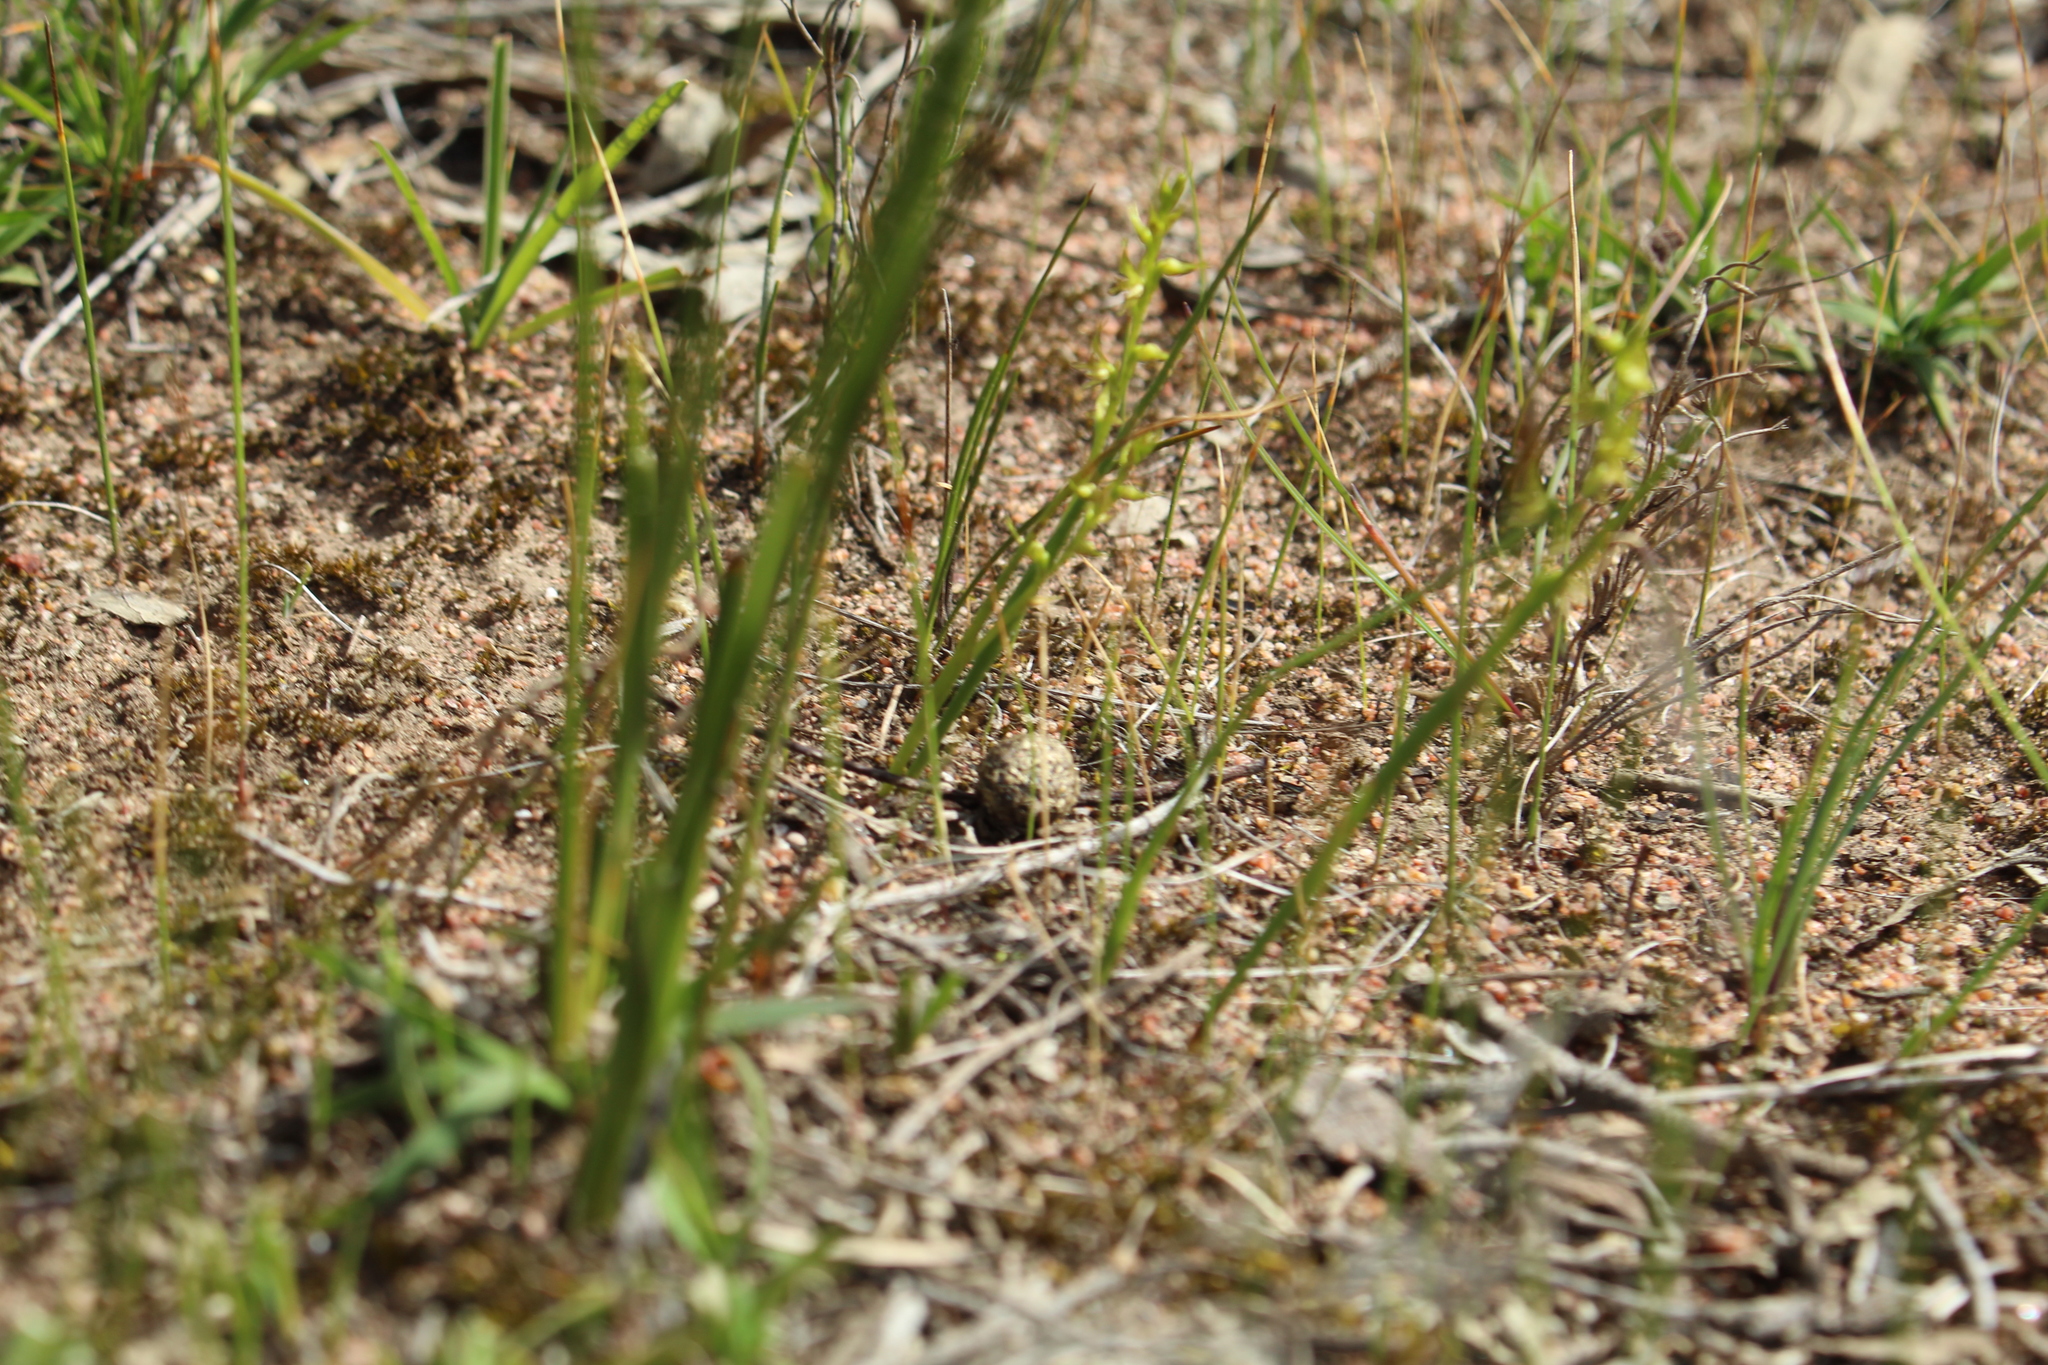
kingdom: Plantae
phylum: Tracheophyta
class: Liliopsida
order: Asparagales
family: Orchidaceae
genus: Prasophyllum
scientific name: Prasophyllum gracile
